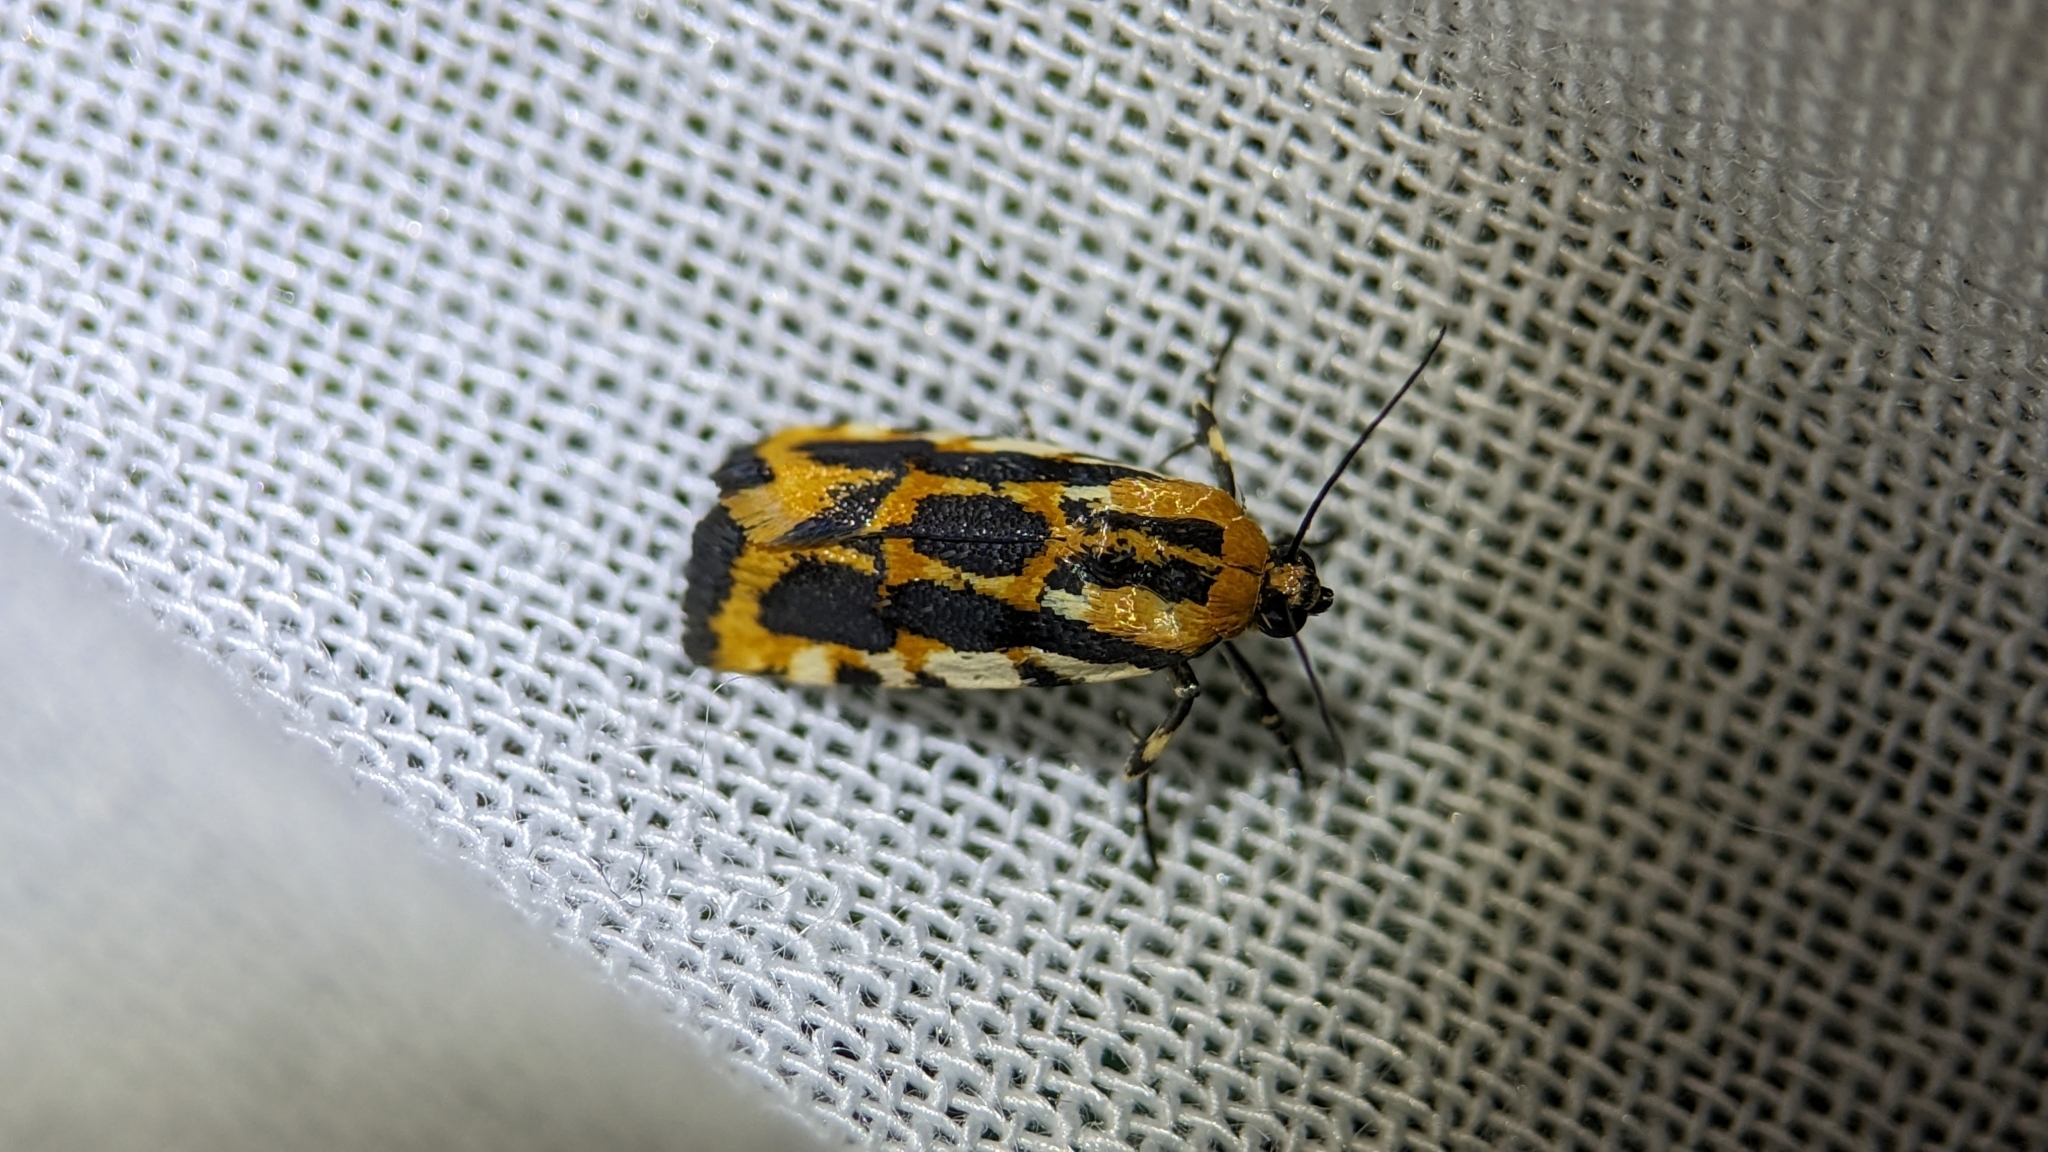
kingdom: Animalia
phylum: Arthropoda
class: Insecta
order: Lepidoptera
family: Noctuidae
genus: Acontia
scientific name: Acontia leo
